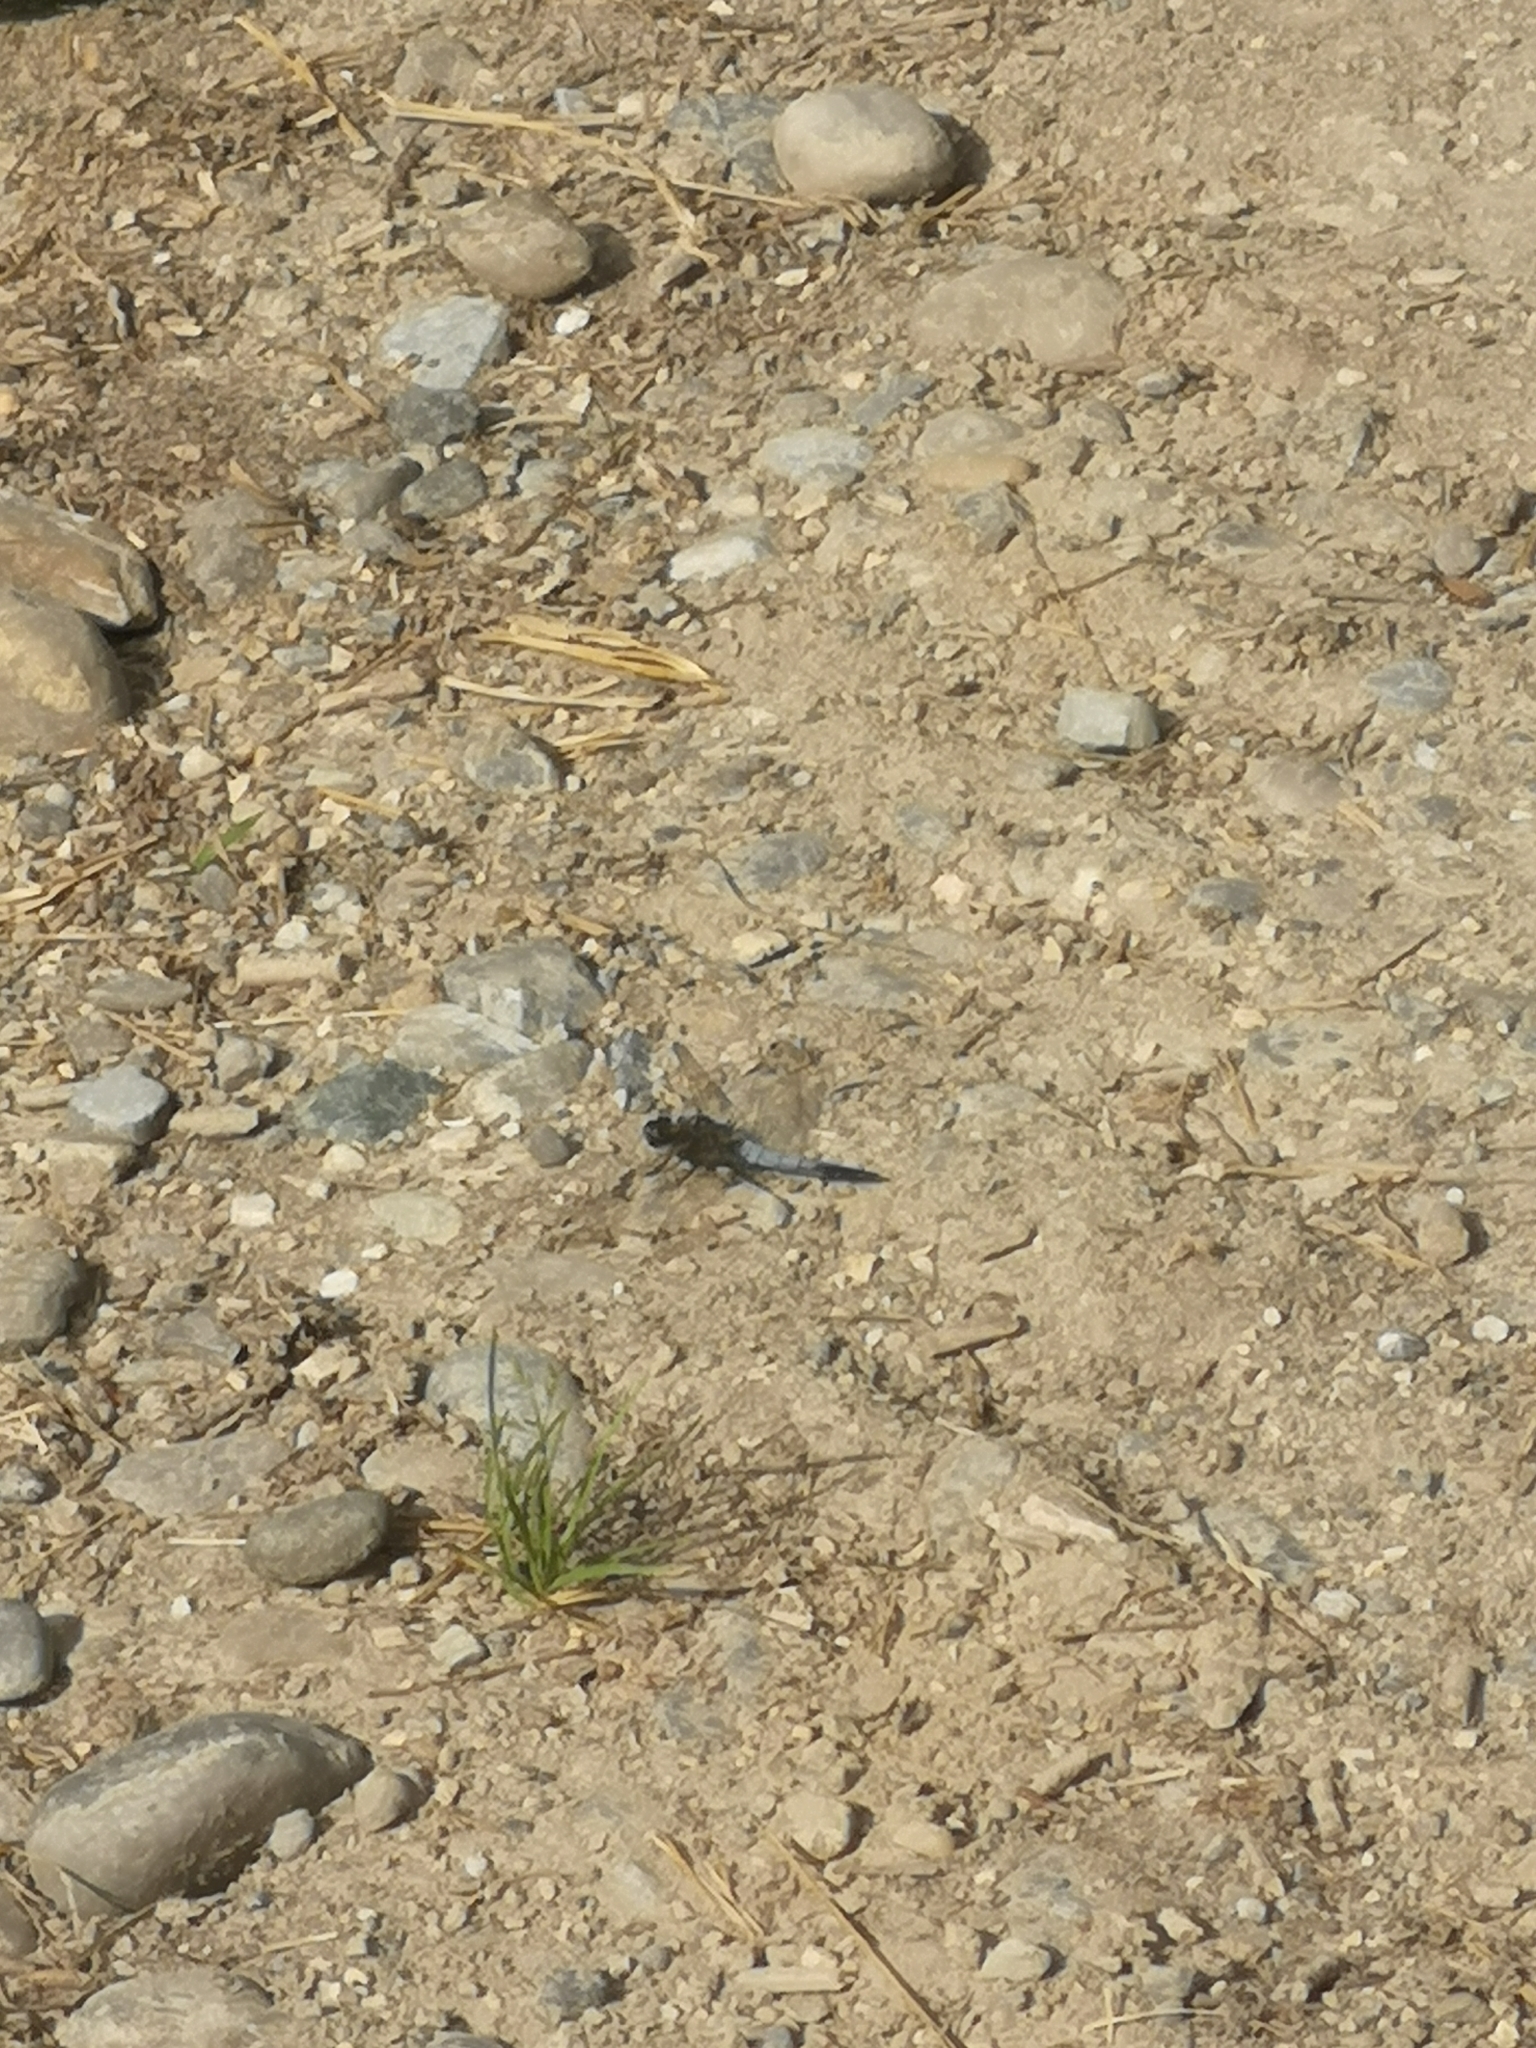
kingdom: Animalia
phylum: Arthropoda
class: Insecta
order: Odonata
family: Libellulidae
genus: Orthetrum
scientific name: Orthetrum cancellatum
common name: Black-tailed skimmer
